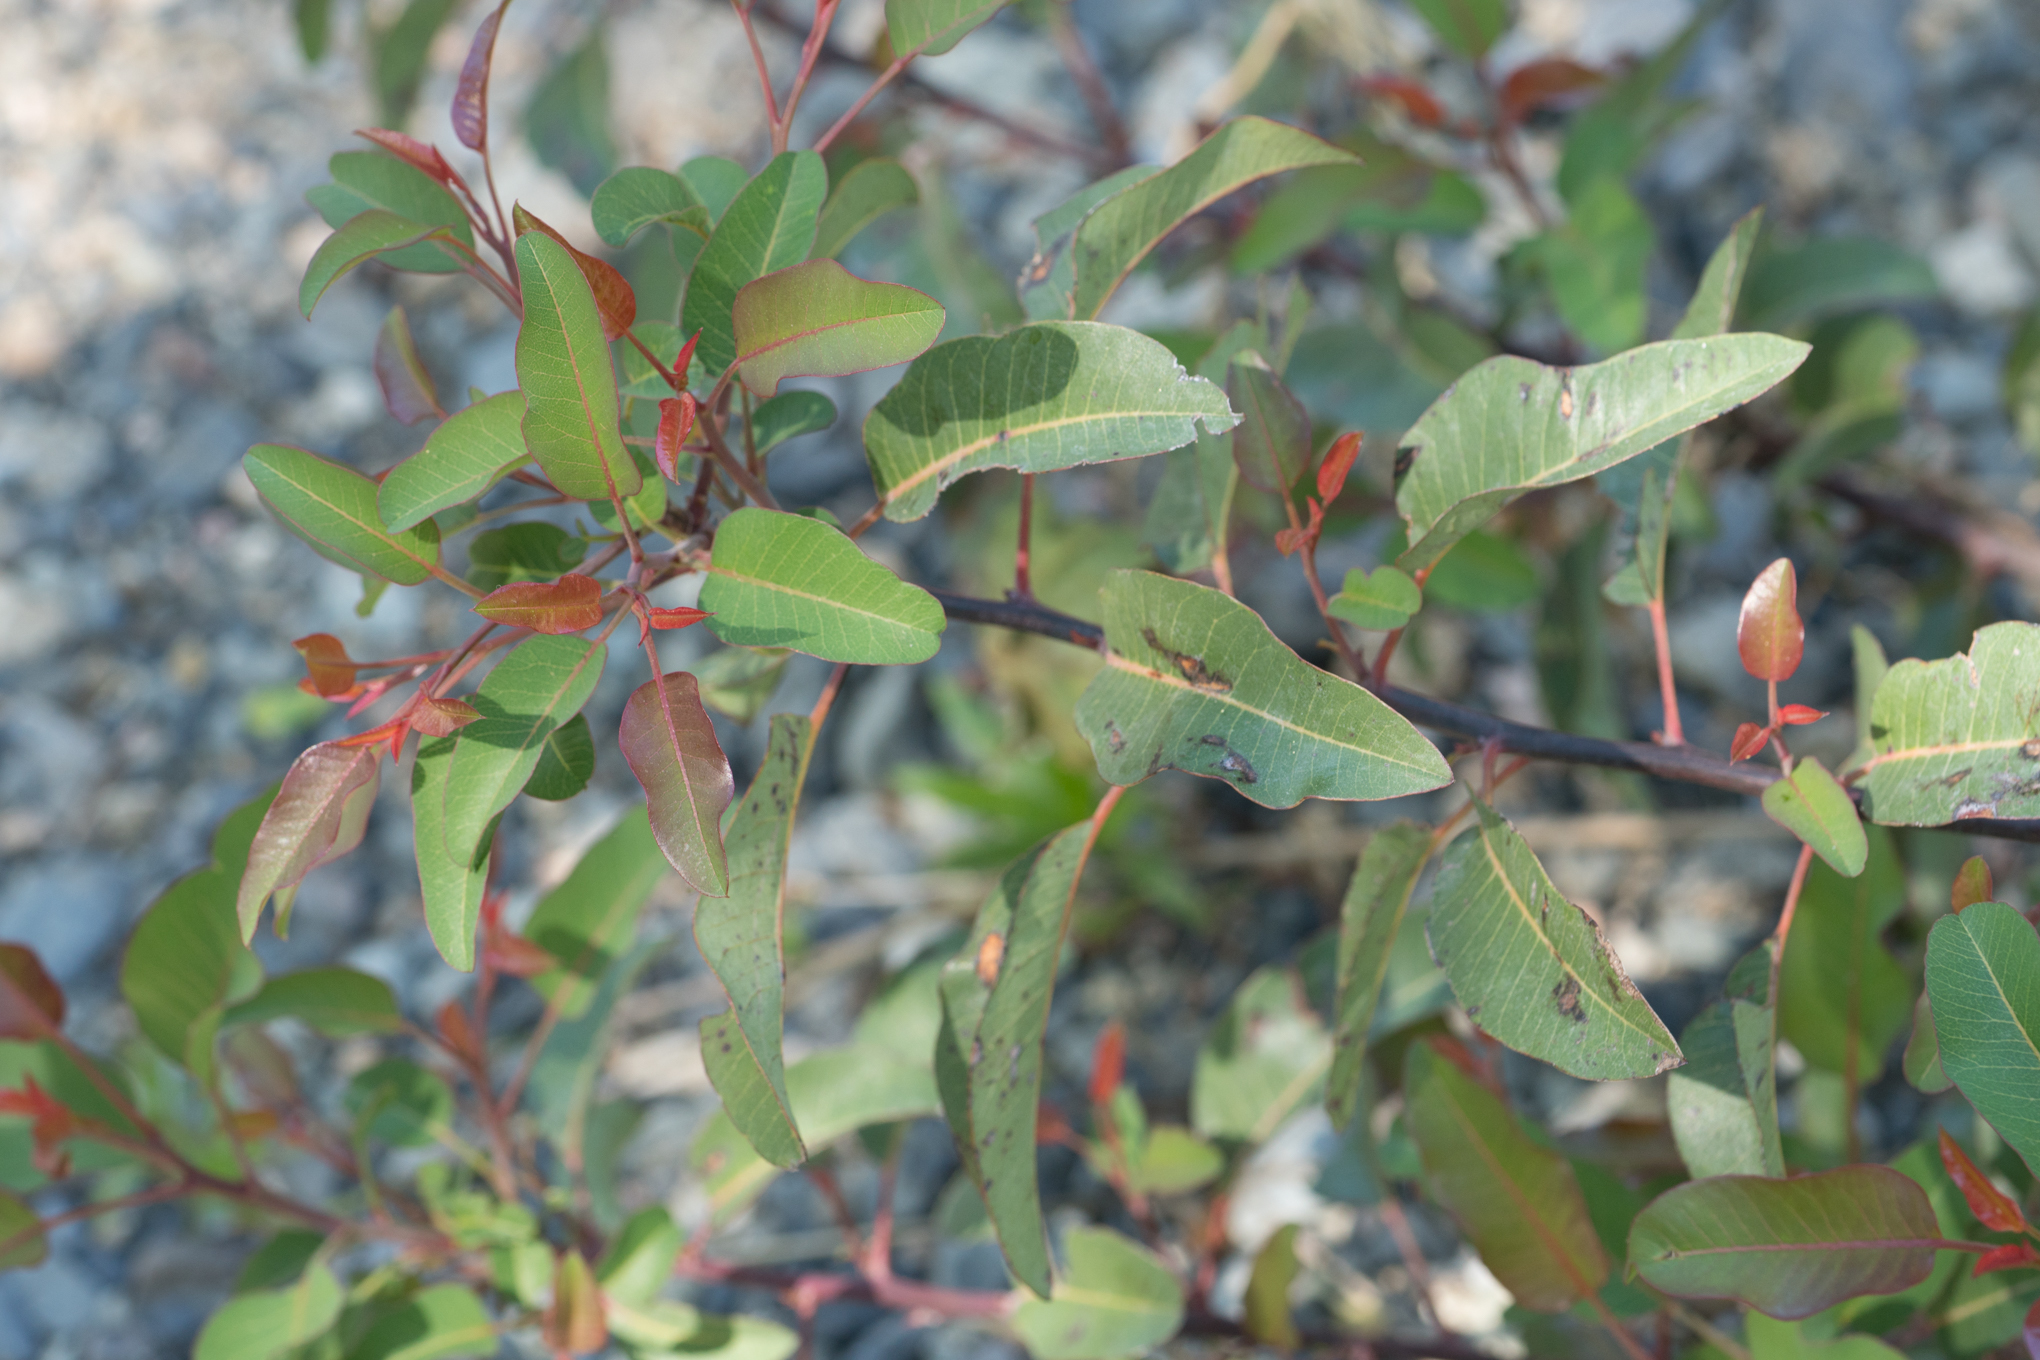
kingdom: Plantae
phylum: Tracheophyta
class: Magnoliopsida
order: Sapindales
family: Anacardiaceae
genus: Malosma
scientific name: Malosma laurina
